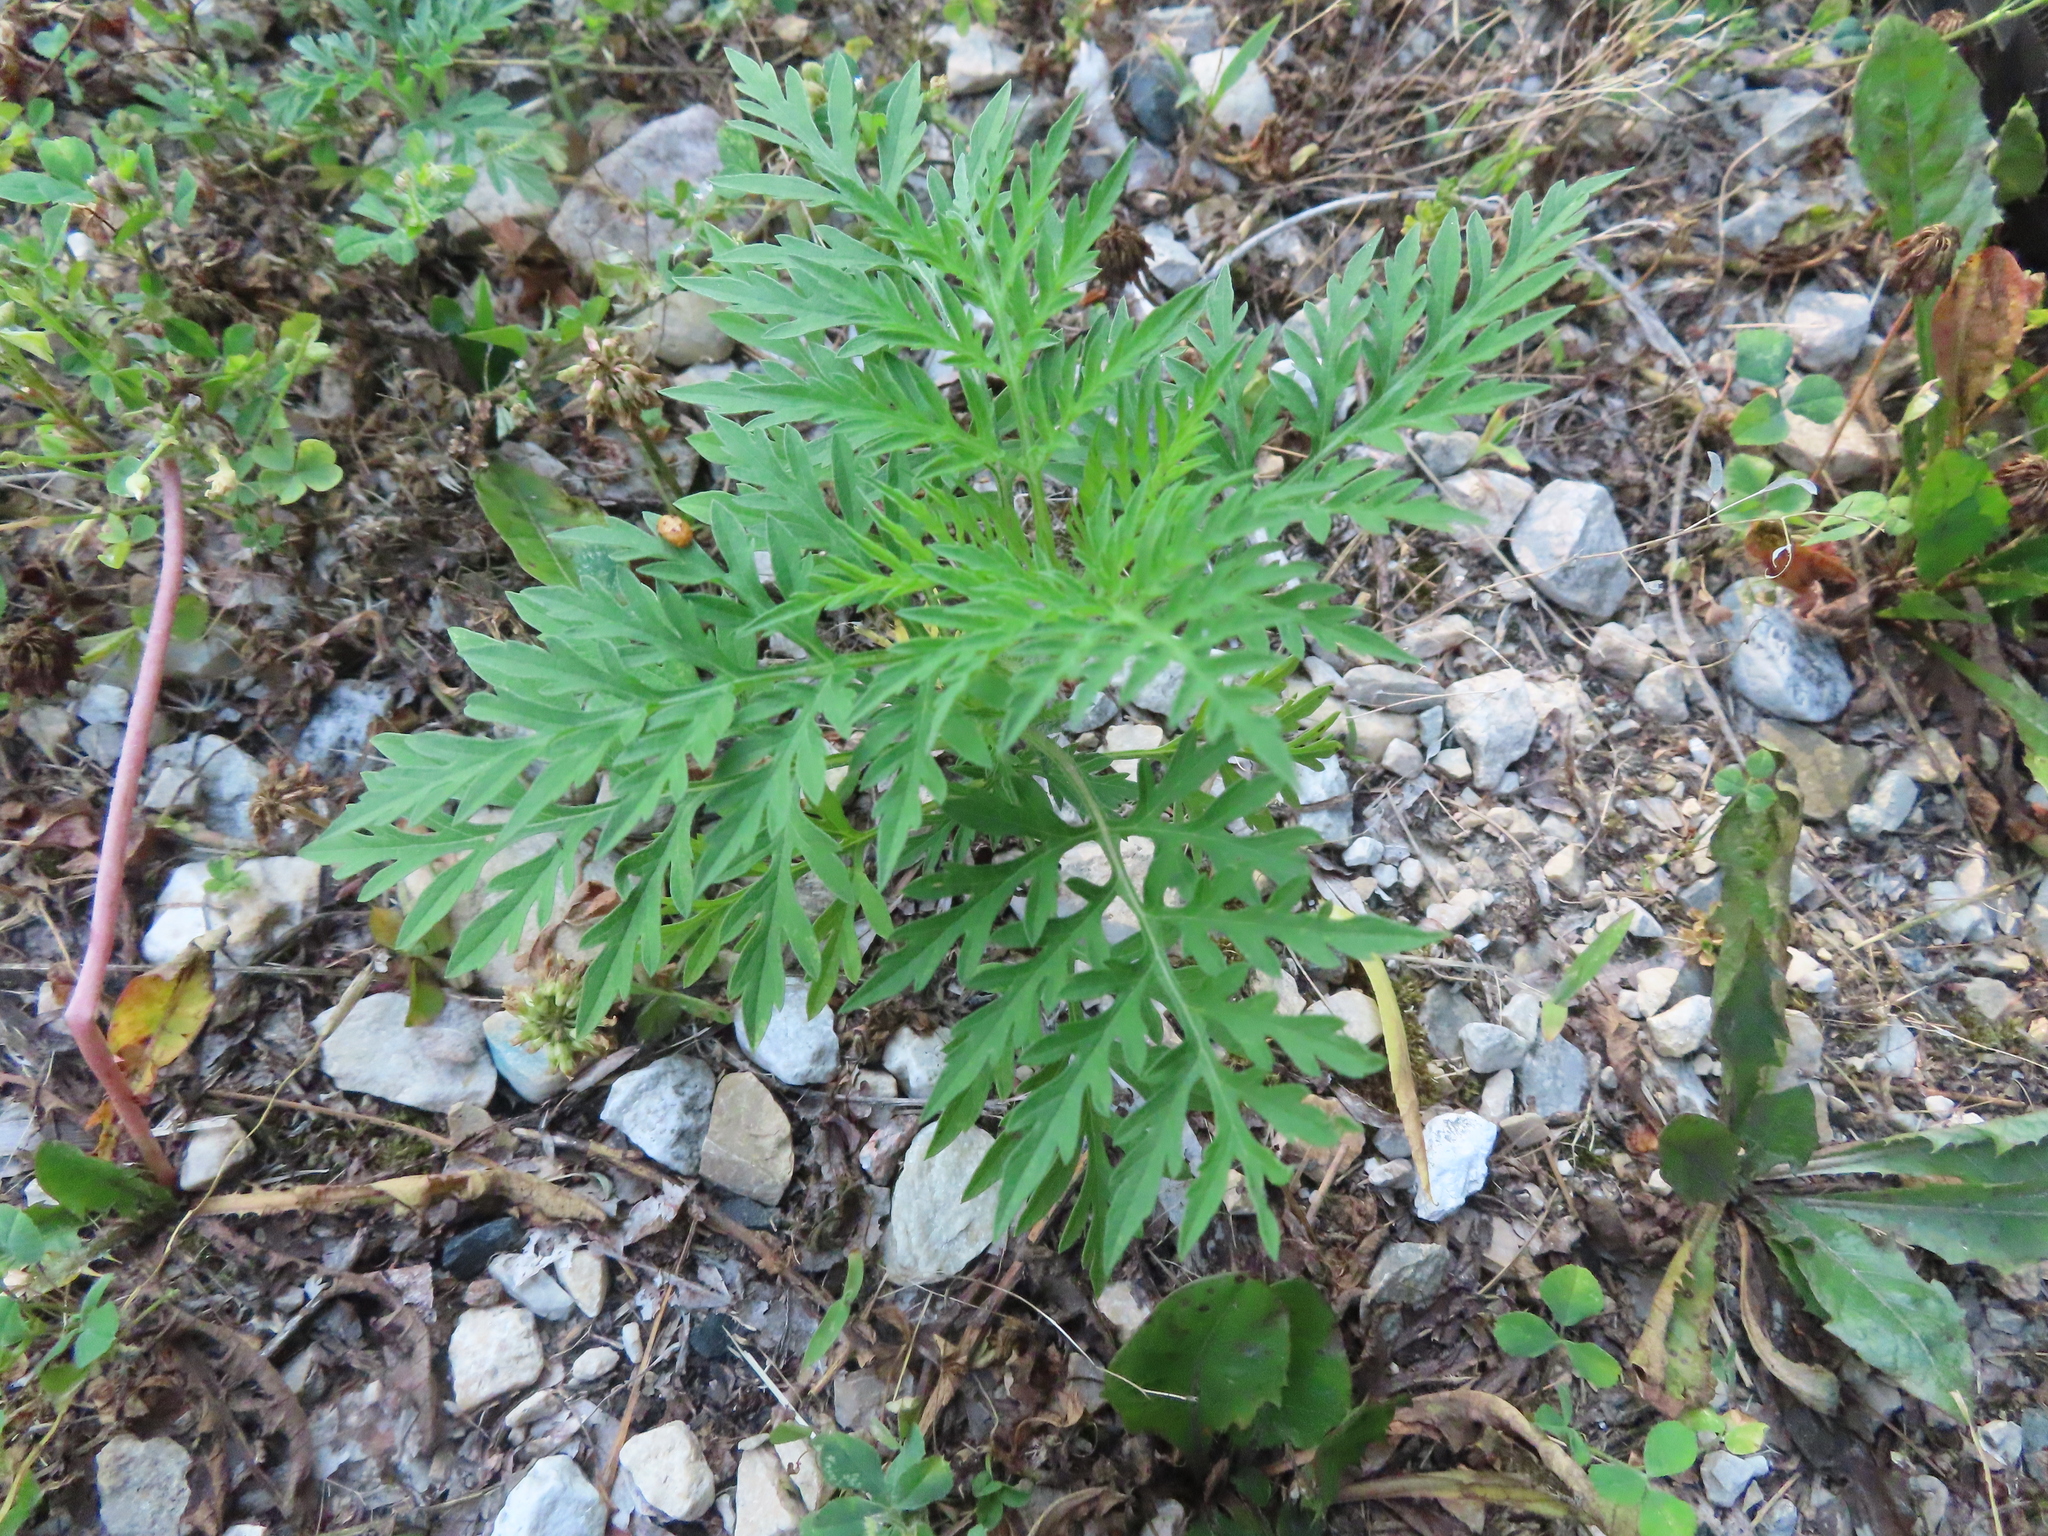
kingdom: Plantae
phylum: Tracheophyta
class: Magnoliopsida
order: Asterales
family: Asteraceae
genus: Ambrosia
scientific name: Ambrosia artemisiifolia
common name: Annual ragweed
